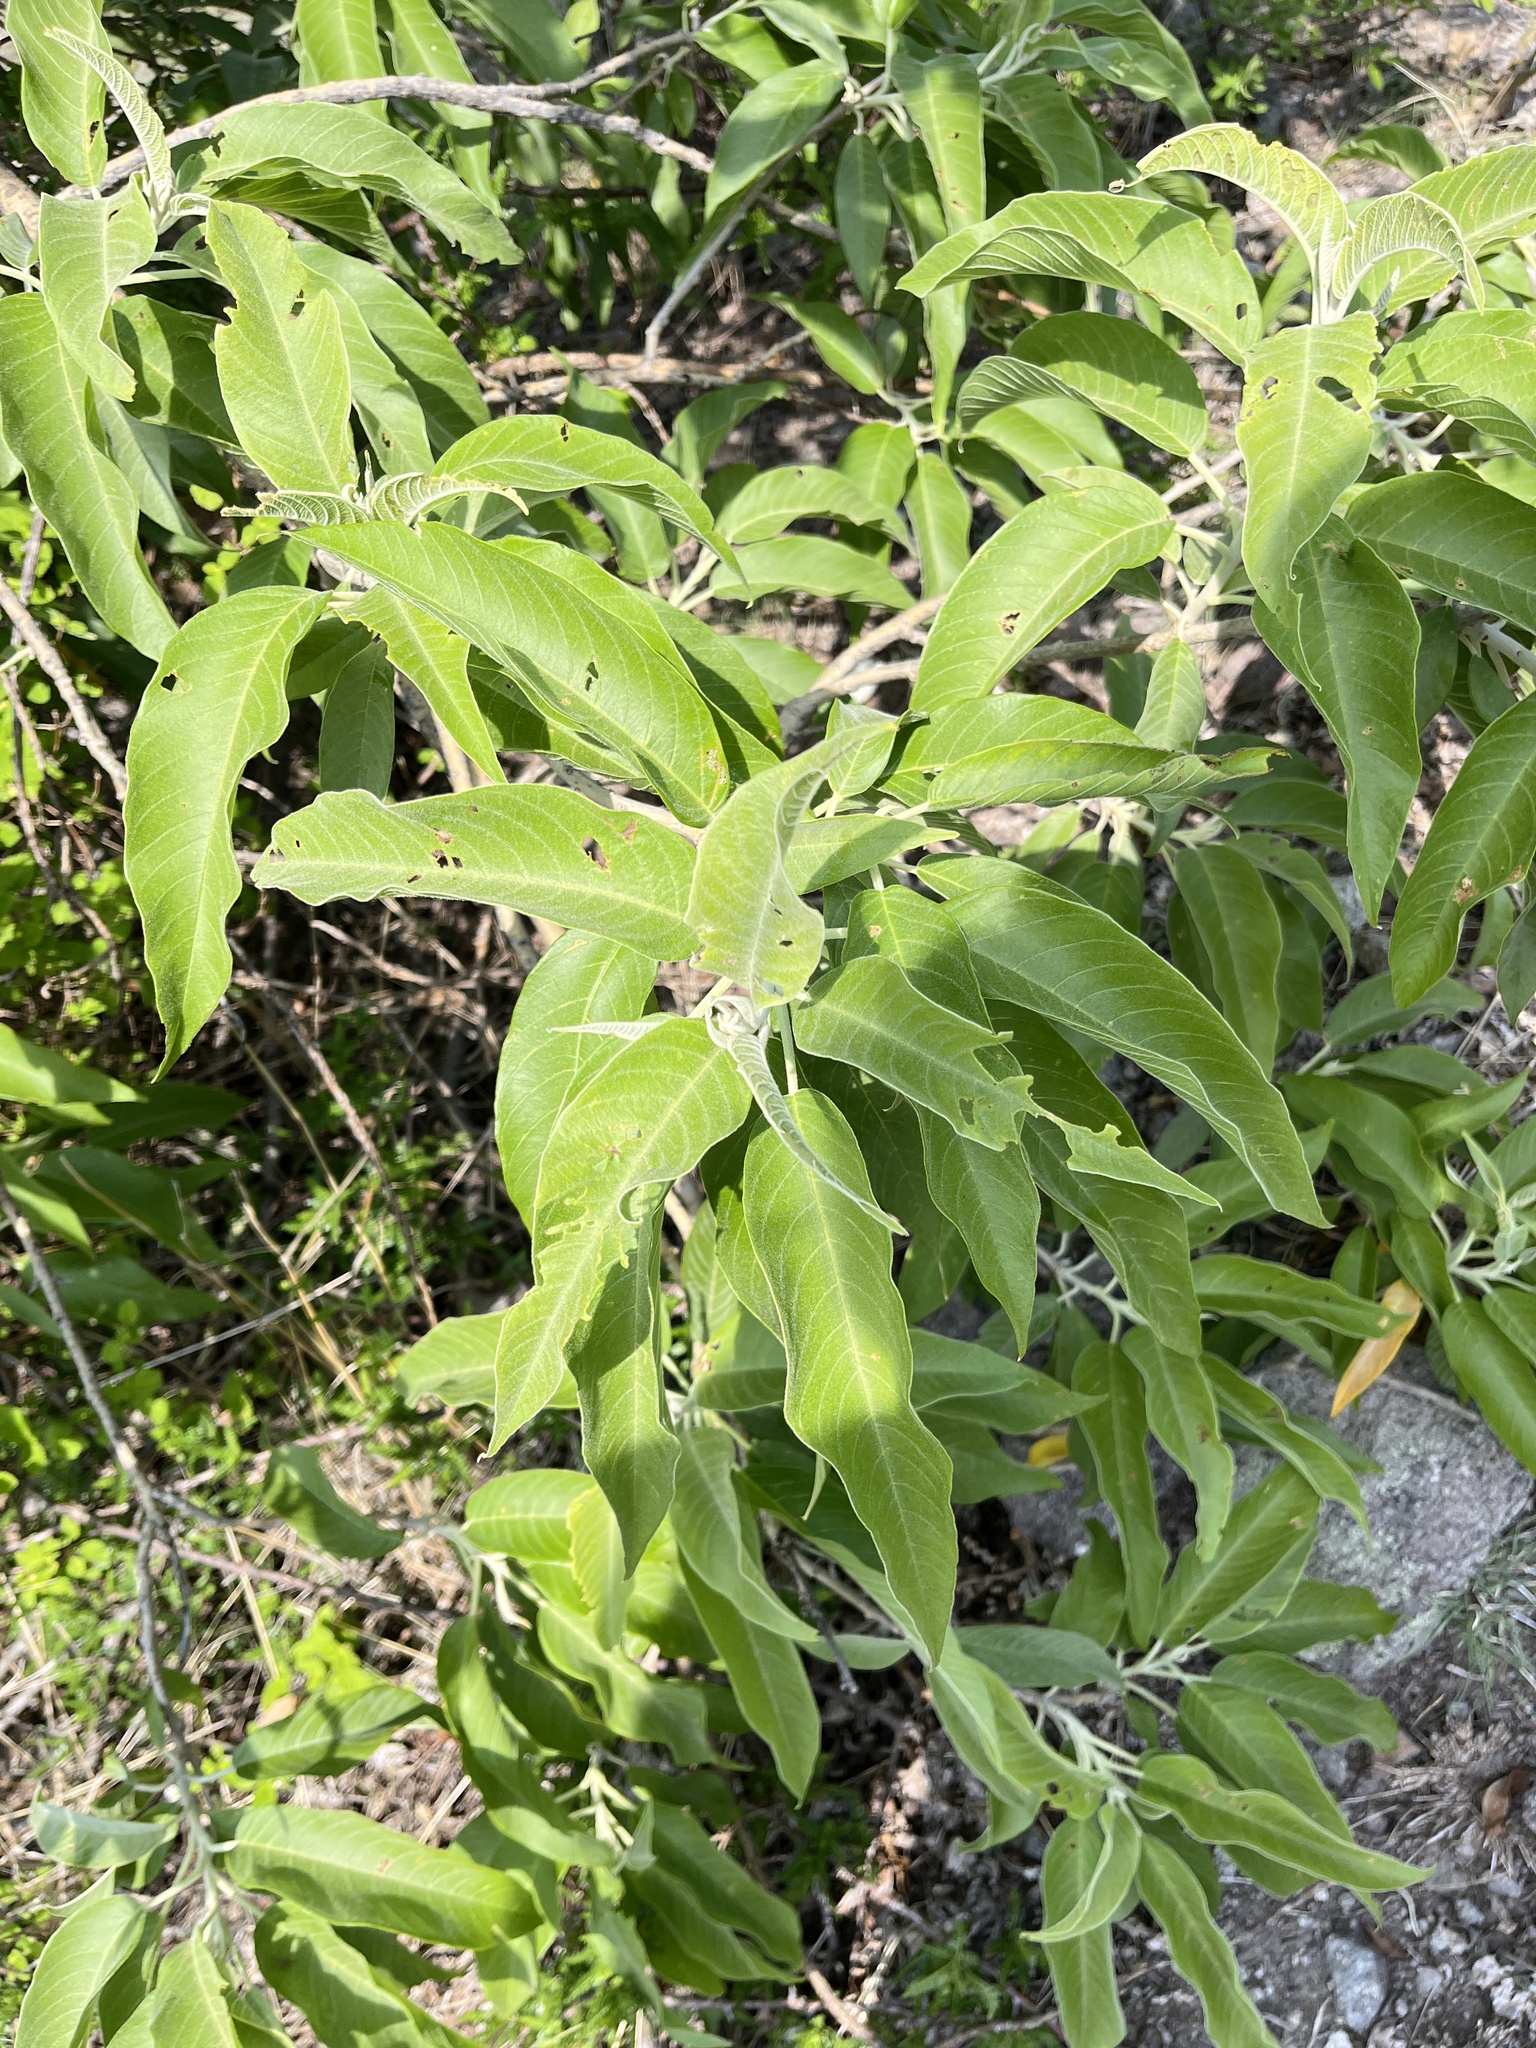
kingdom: Plantae
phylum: Tracheophyta
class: Magnoliopsida
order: Solanales
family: Convolvulaceae
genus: Ipomoea
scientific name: Ipomoea murucoides
